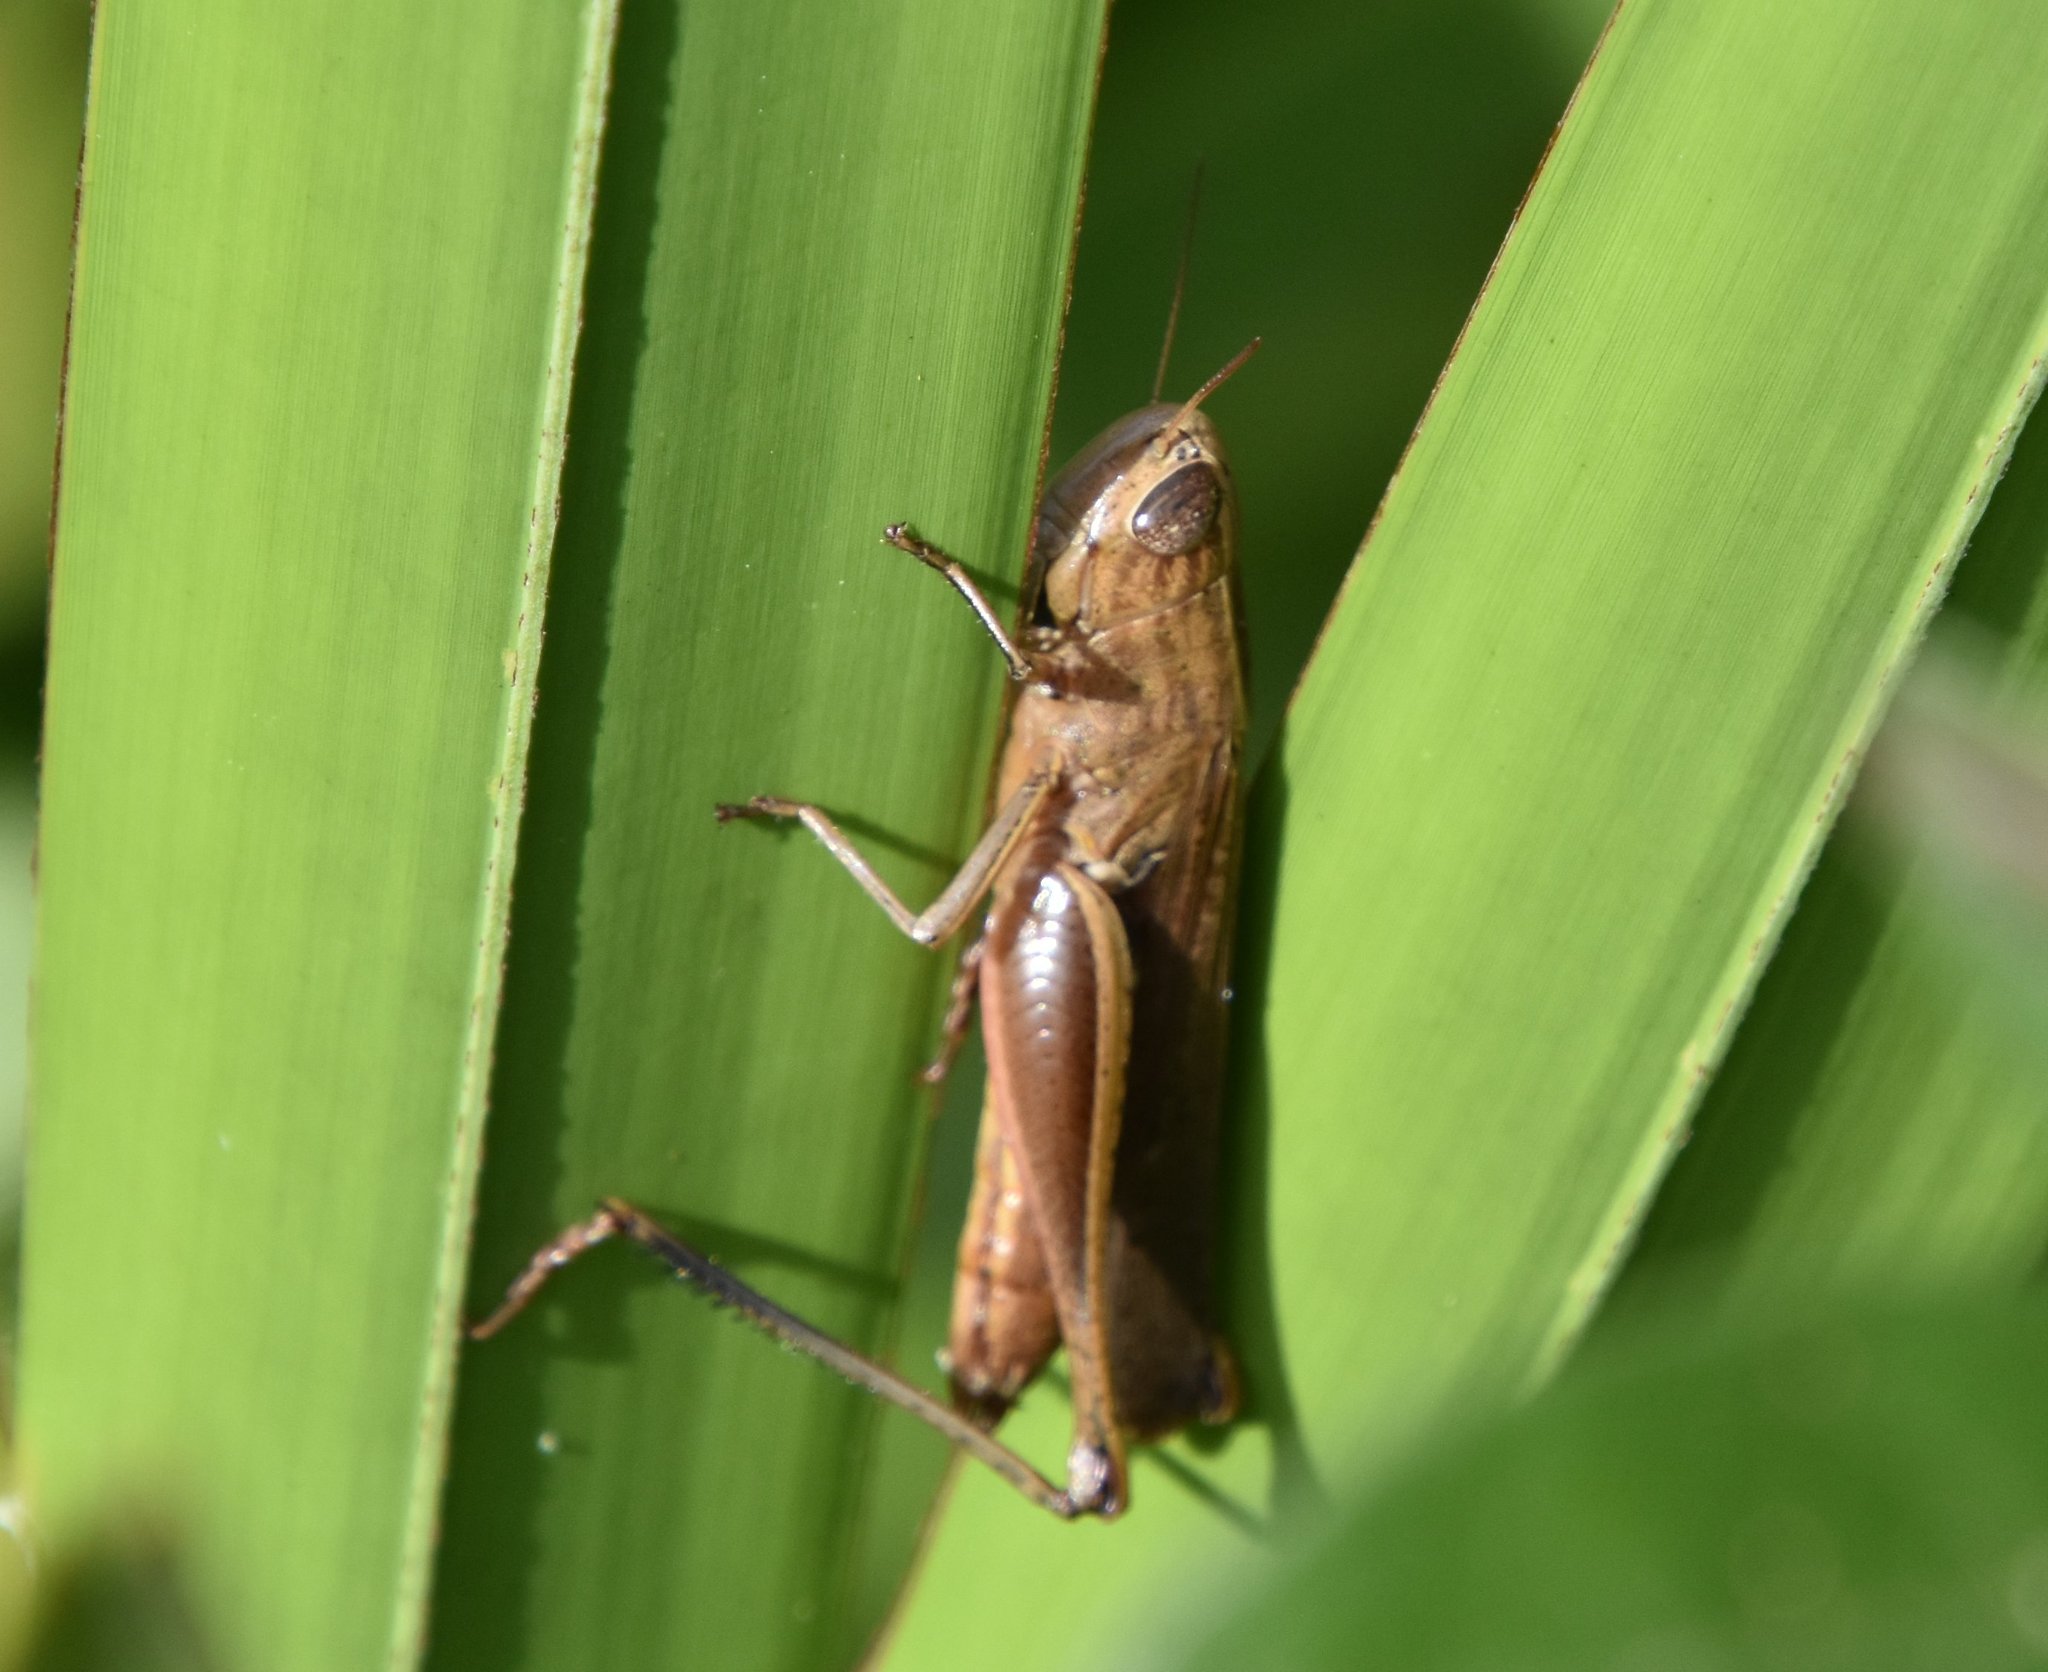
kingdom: Animalia
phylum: Arthropoda
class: Insecta
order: Orthoptera
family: Acrididae
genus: Amblytropidia
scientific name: Amblytropidia mysteca
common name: Brown winter grasshopper
